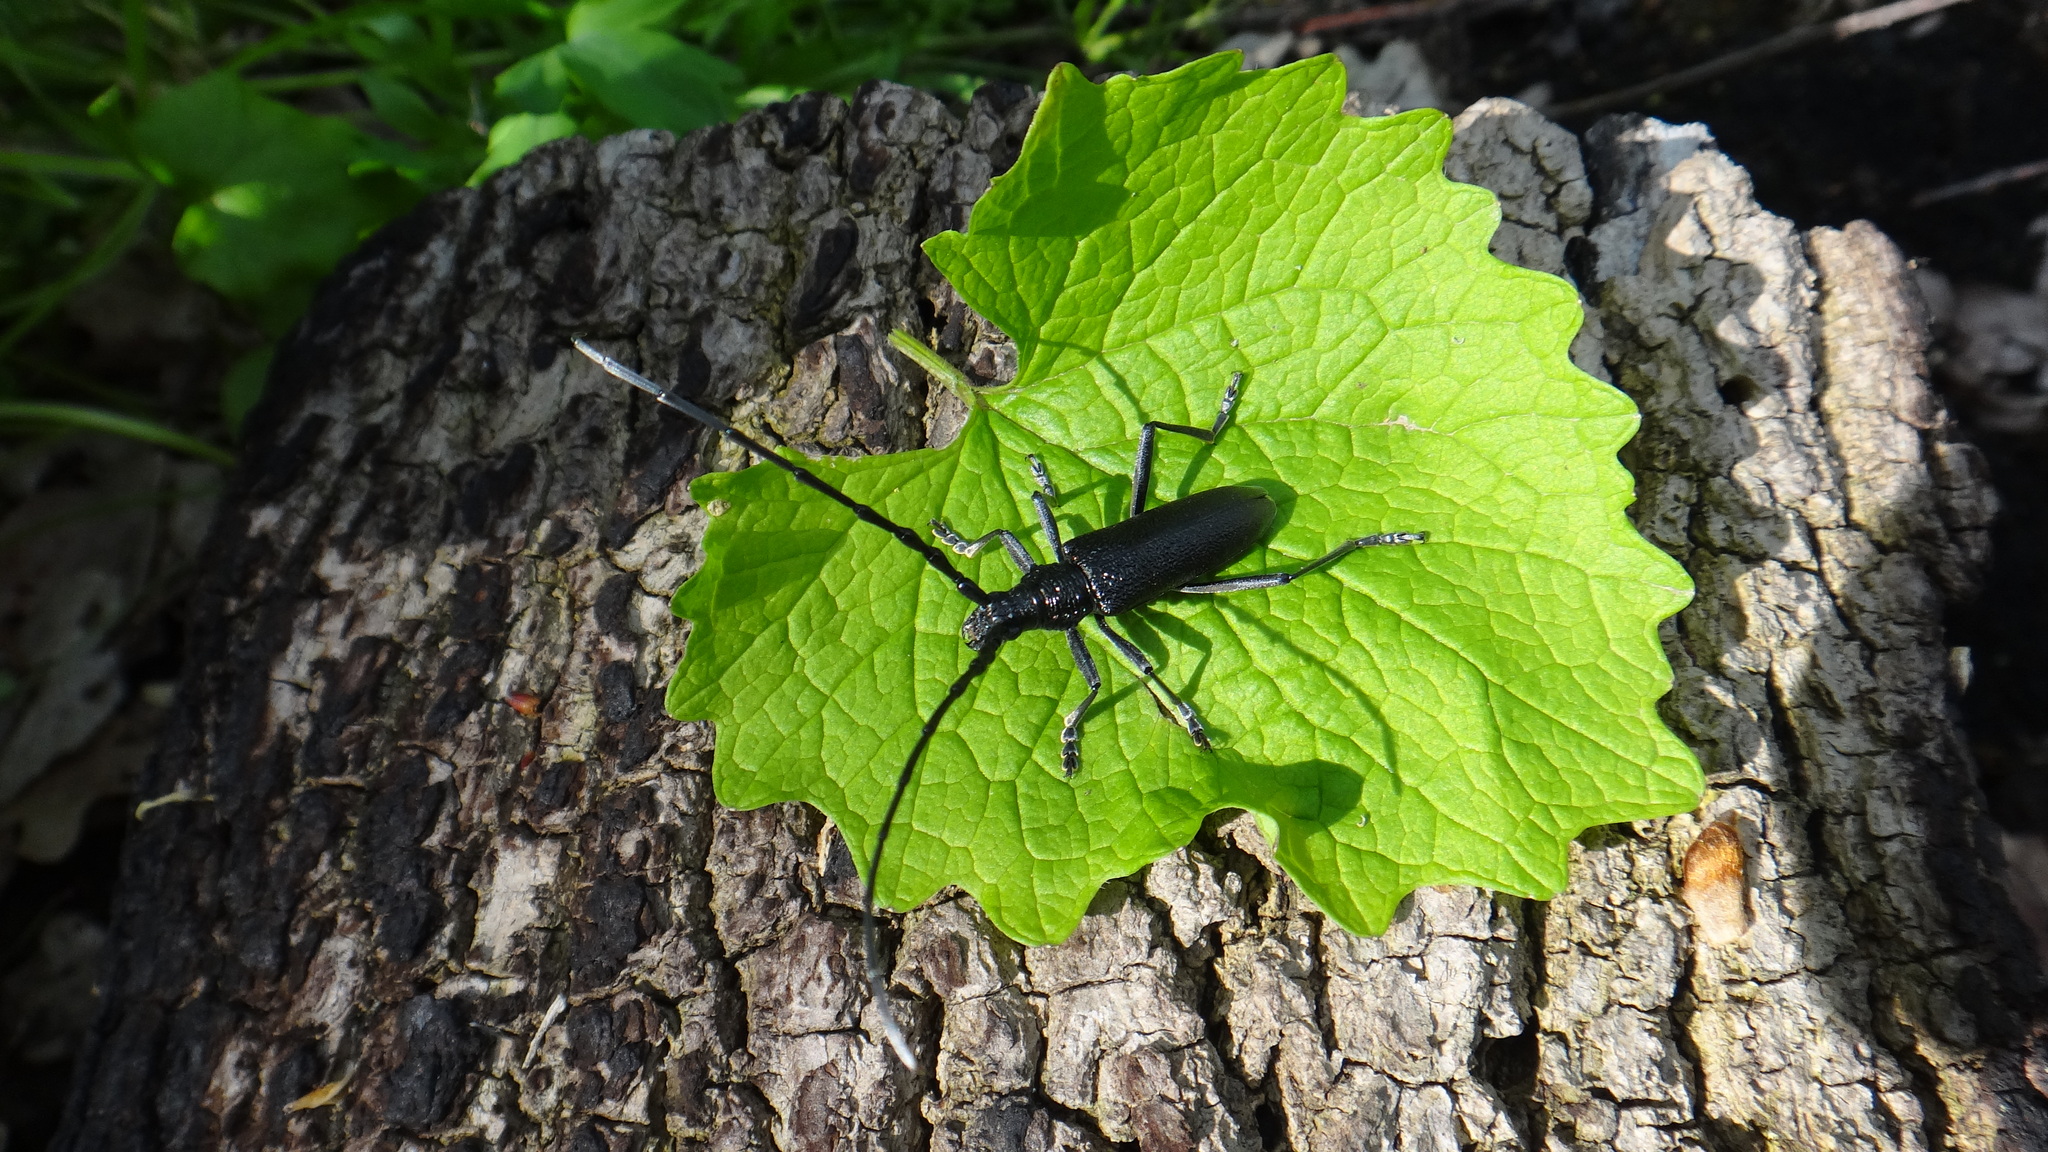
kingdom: Animalia
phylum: Arthropoda
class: Insecta
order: Coleoptera
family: Cerambycidae
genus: Cerambyx
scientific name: Cerambyx scopolii
